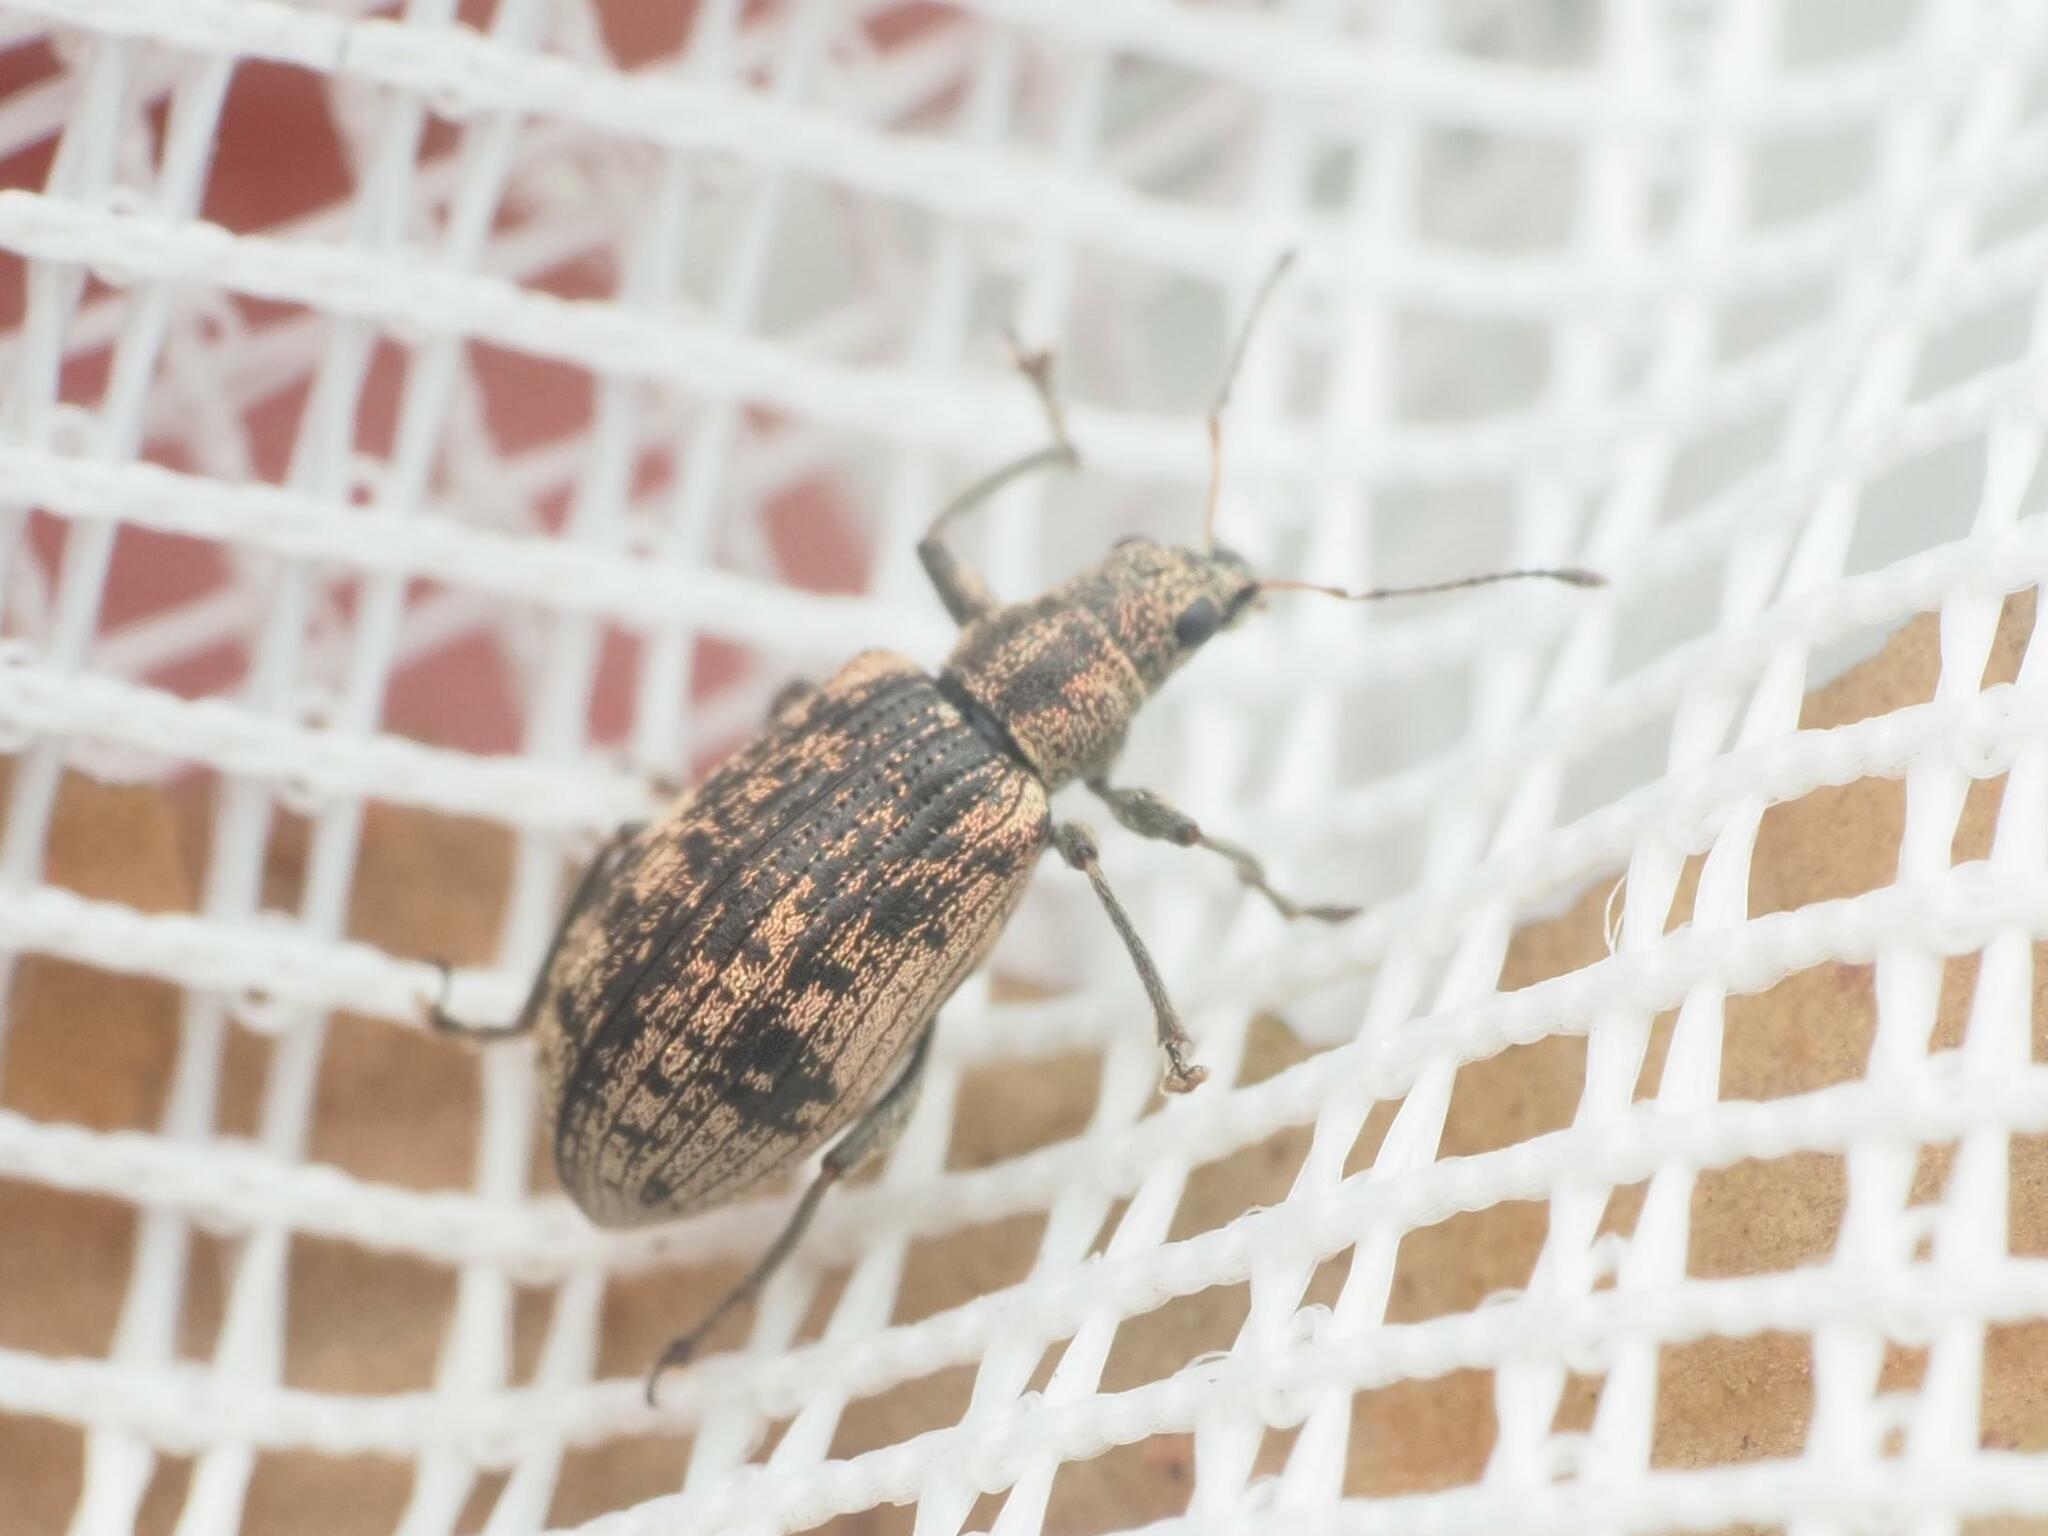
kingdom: Animalia
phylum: Arthropoda
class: Insecta
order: Coleoptera
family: Curculionidae
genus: Polydrusus
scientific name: Polydrusus cervinus
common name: Weevil
